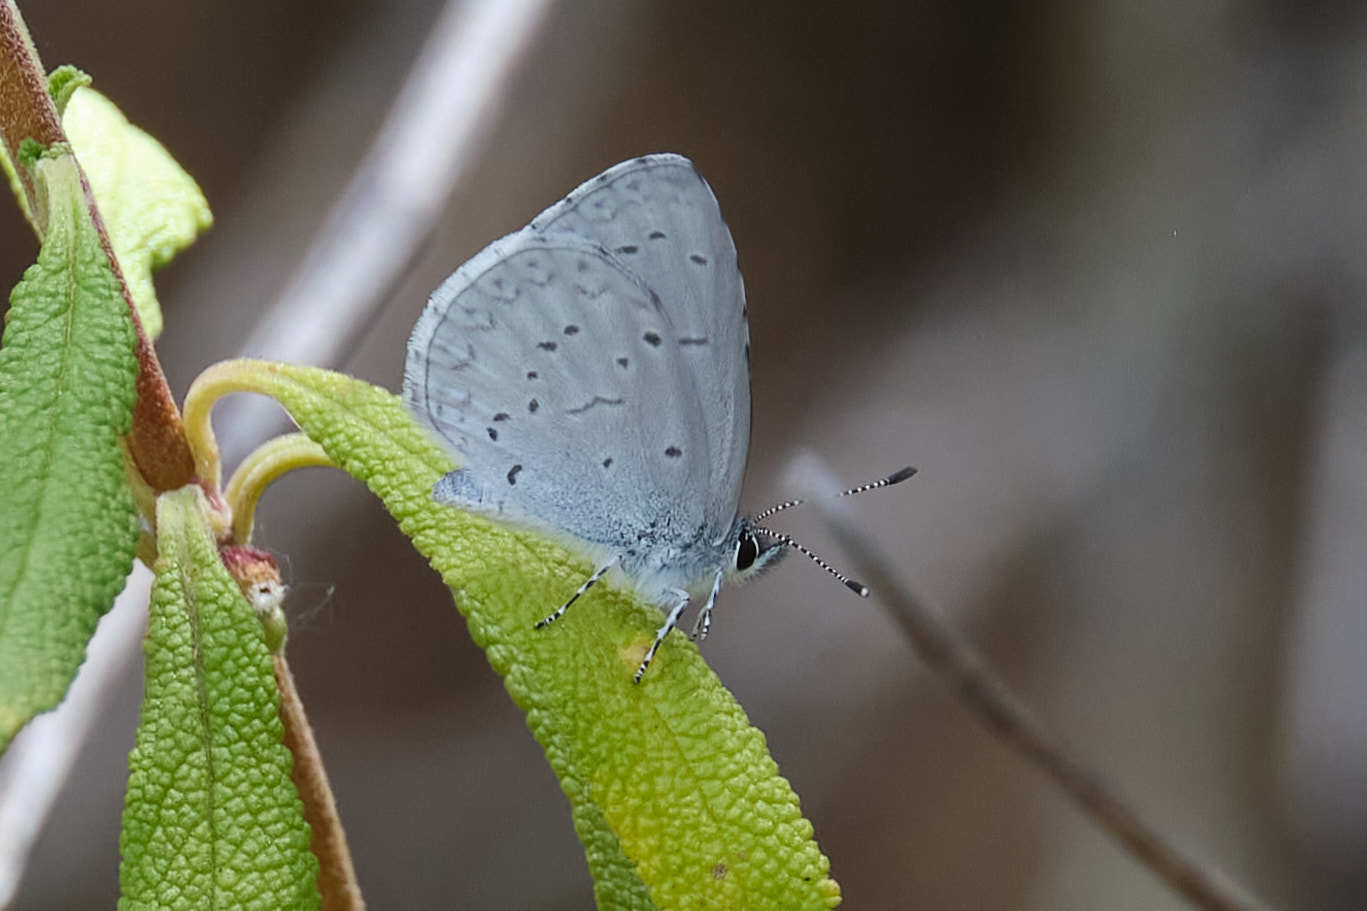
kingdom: Animalia
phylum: Arthropoda
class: Insecta
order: Lepidoptera
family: Lycaenidae
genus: Celastrina
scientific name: Celastrina ladon
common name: Spring azure
